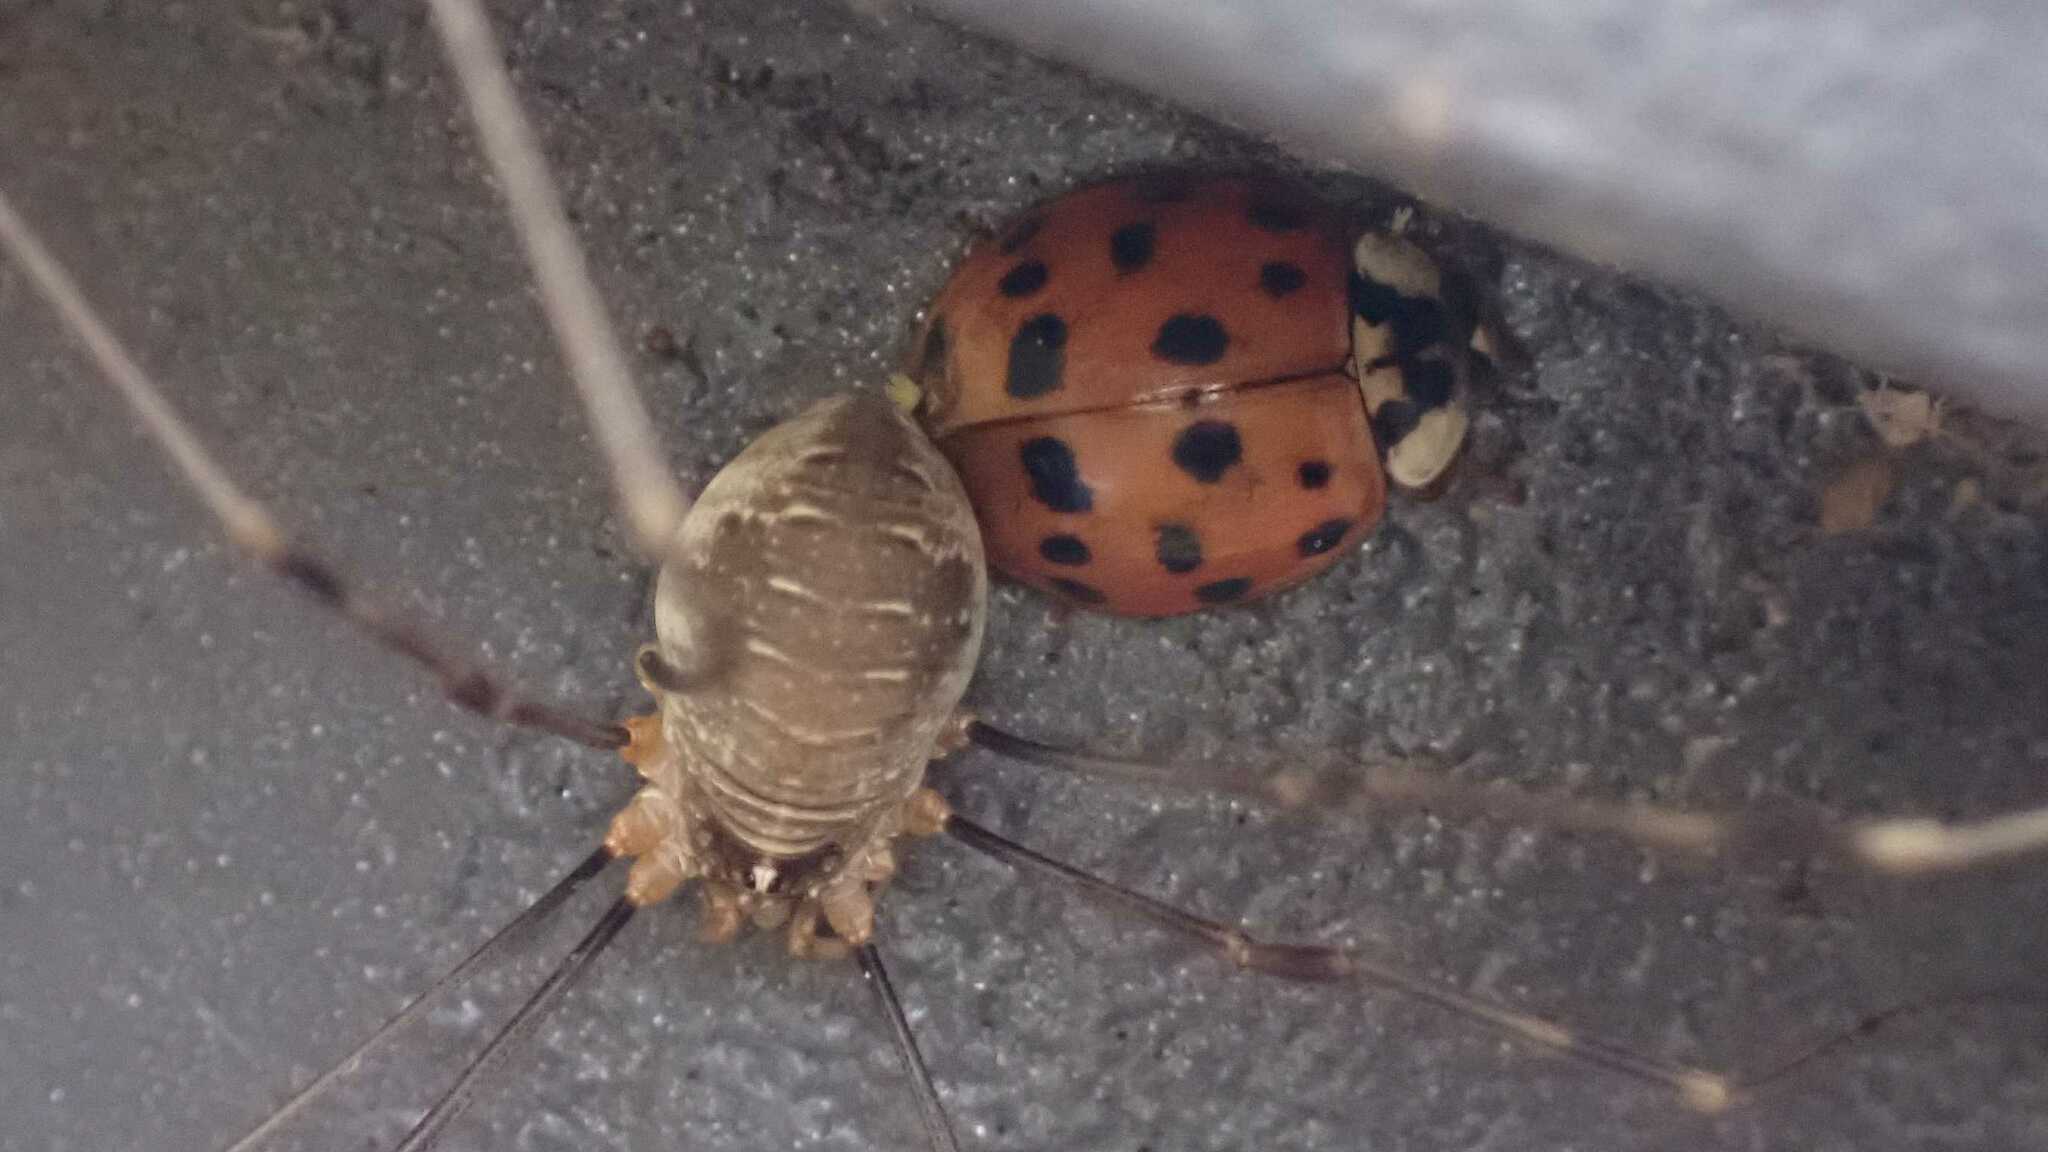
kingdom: Animalia
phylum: Arthropoda
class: Insecta
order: Coleoptera
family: Coccinellidae
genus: Harmonia
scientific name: Harmonia axyridis
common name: Harlequin ladybird
